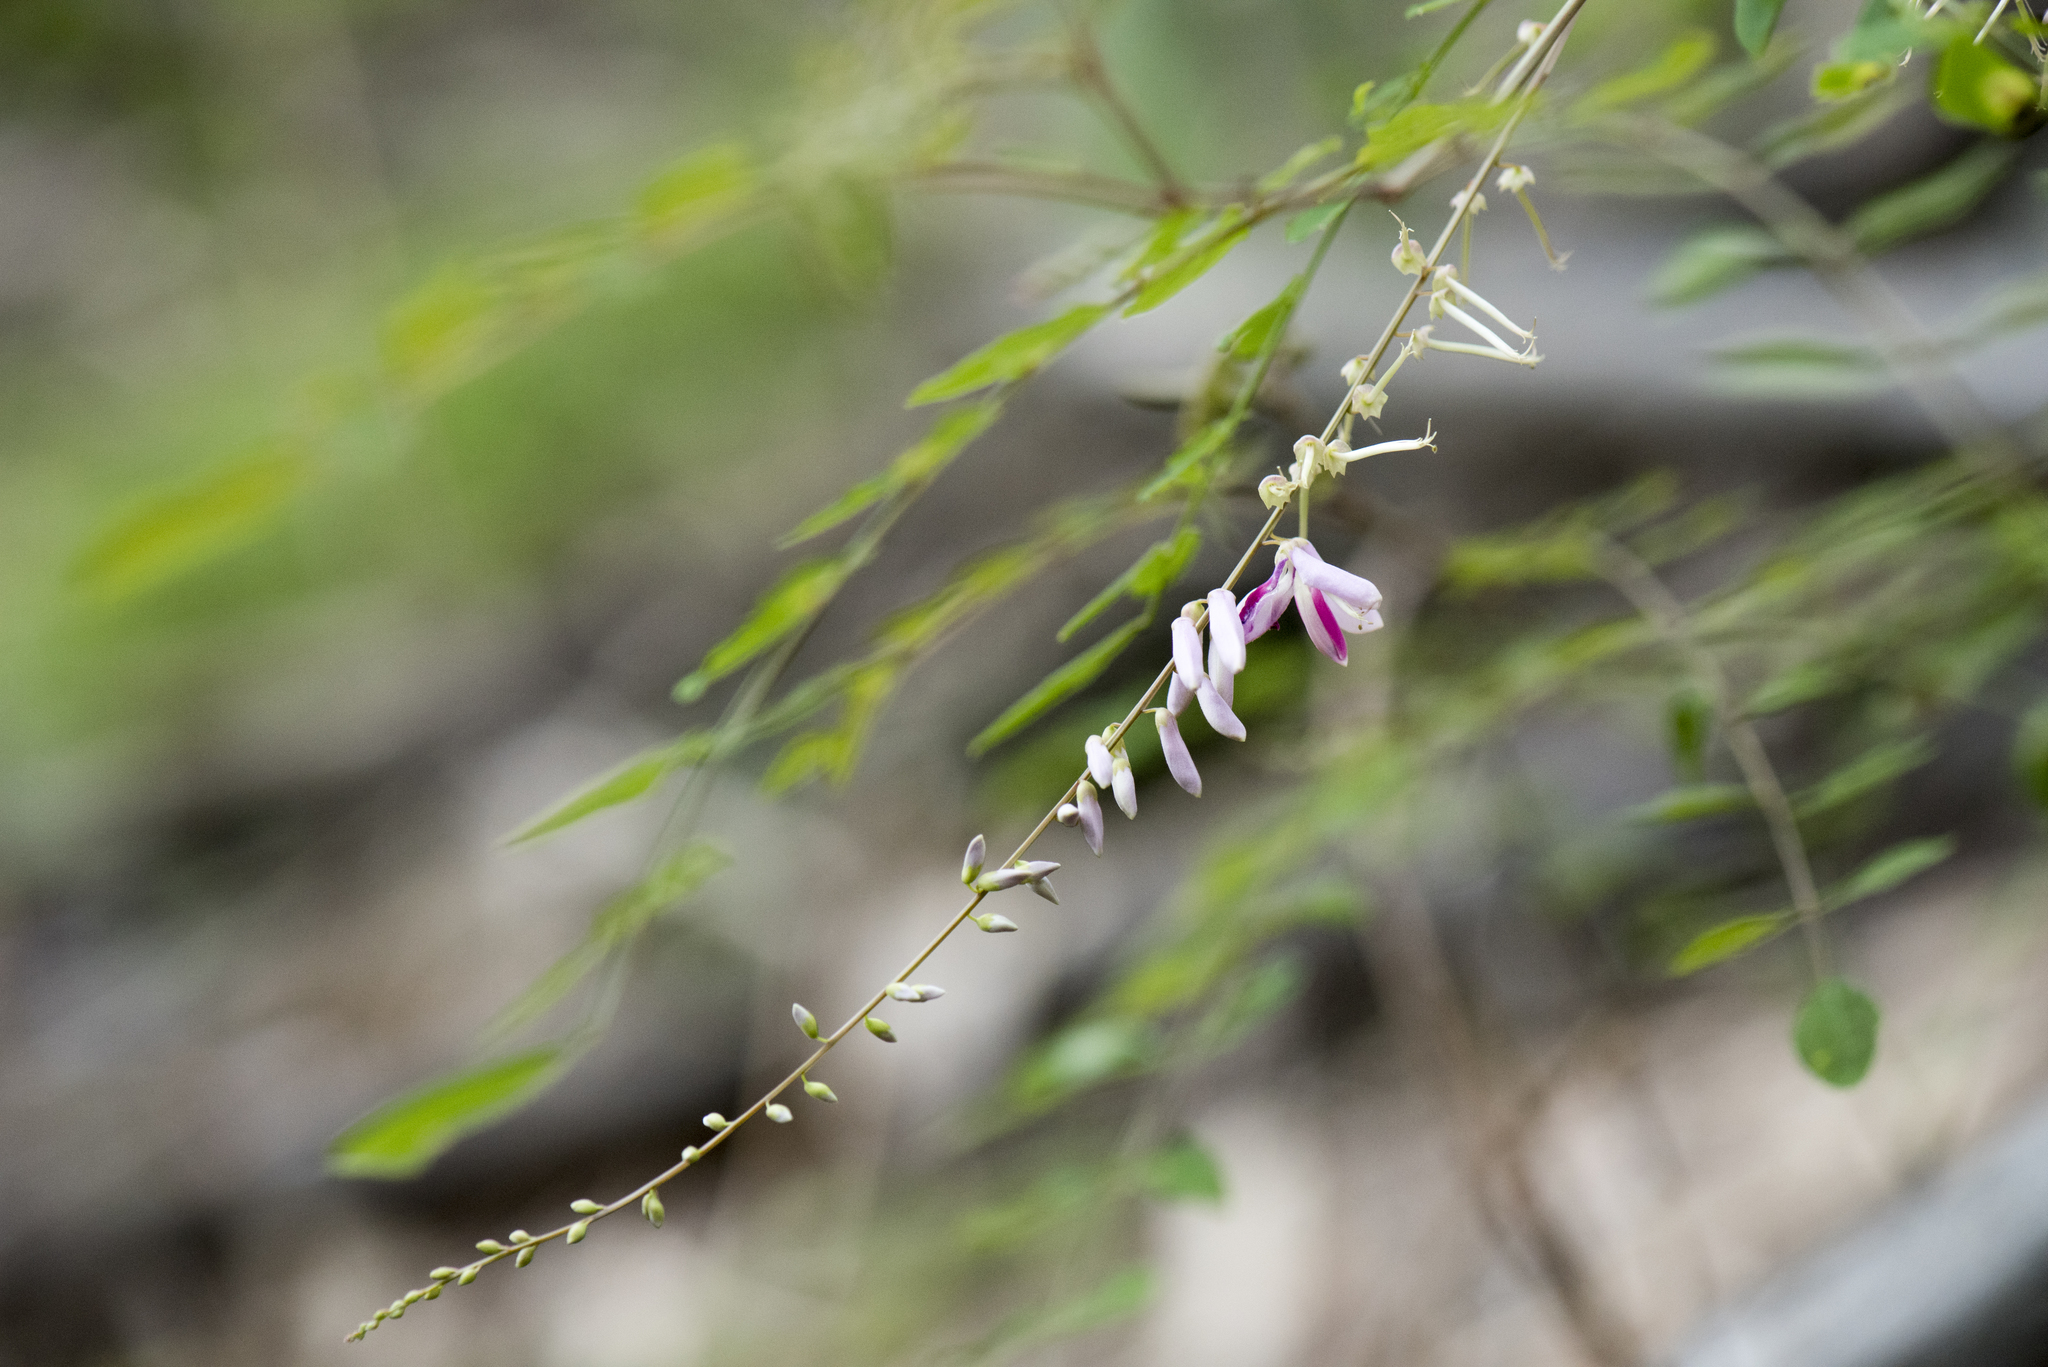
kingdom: Plantae
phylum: Tracheophyta
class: Magnoliopsida
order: Fabales
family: Fabaceae
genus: Indigofera
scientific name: Indigofera venulosa
